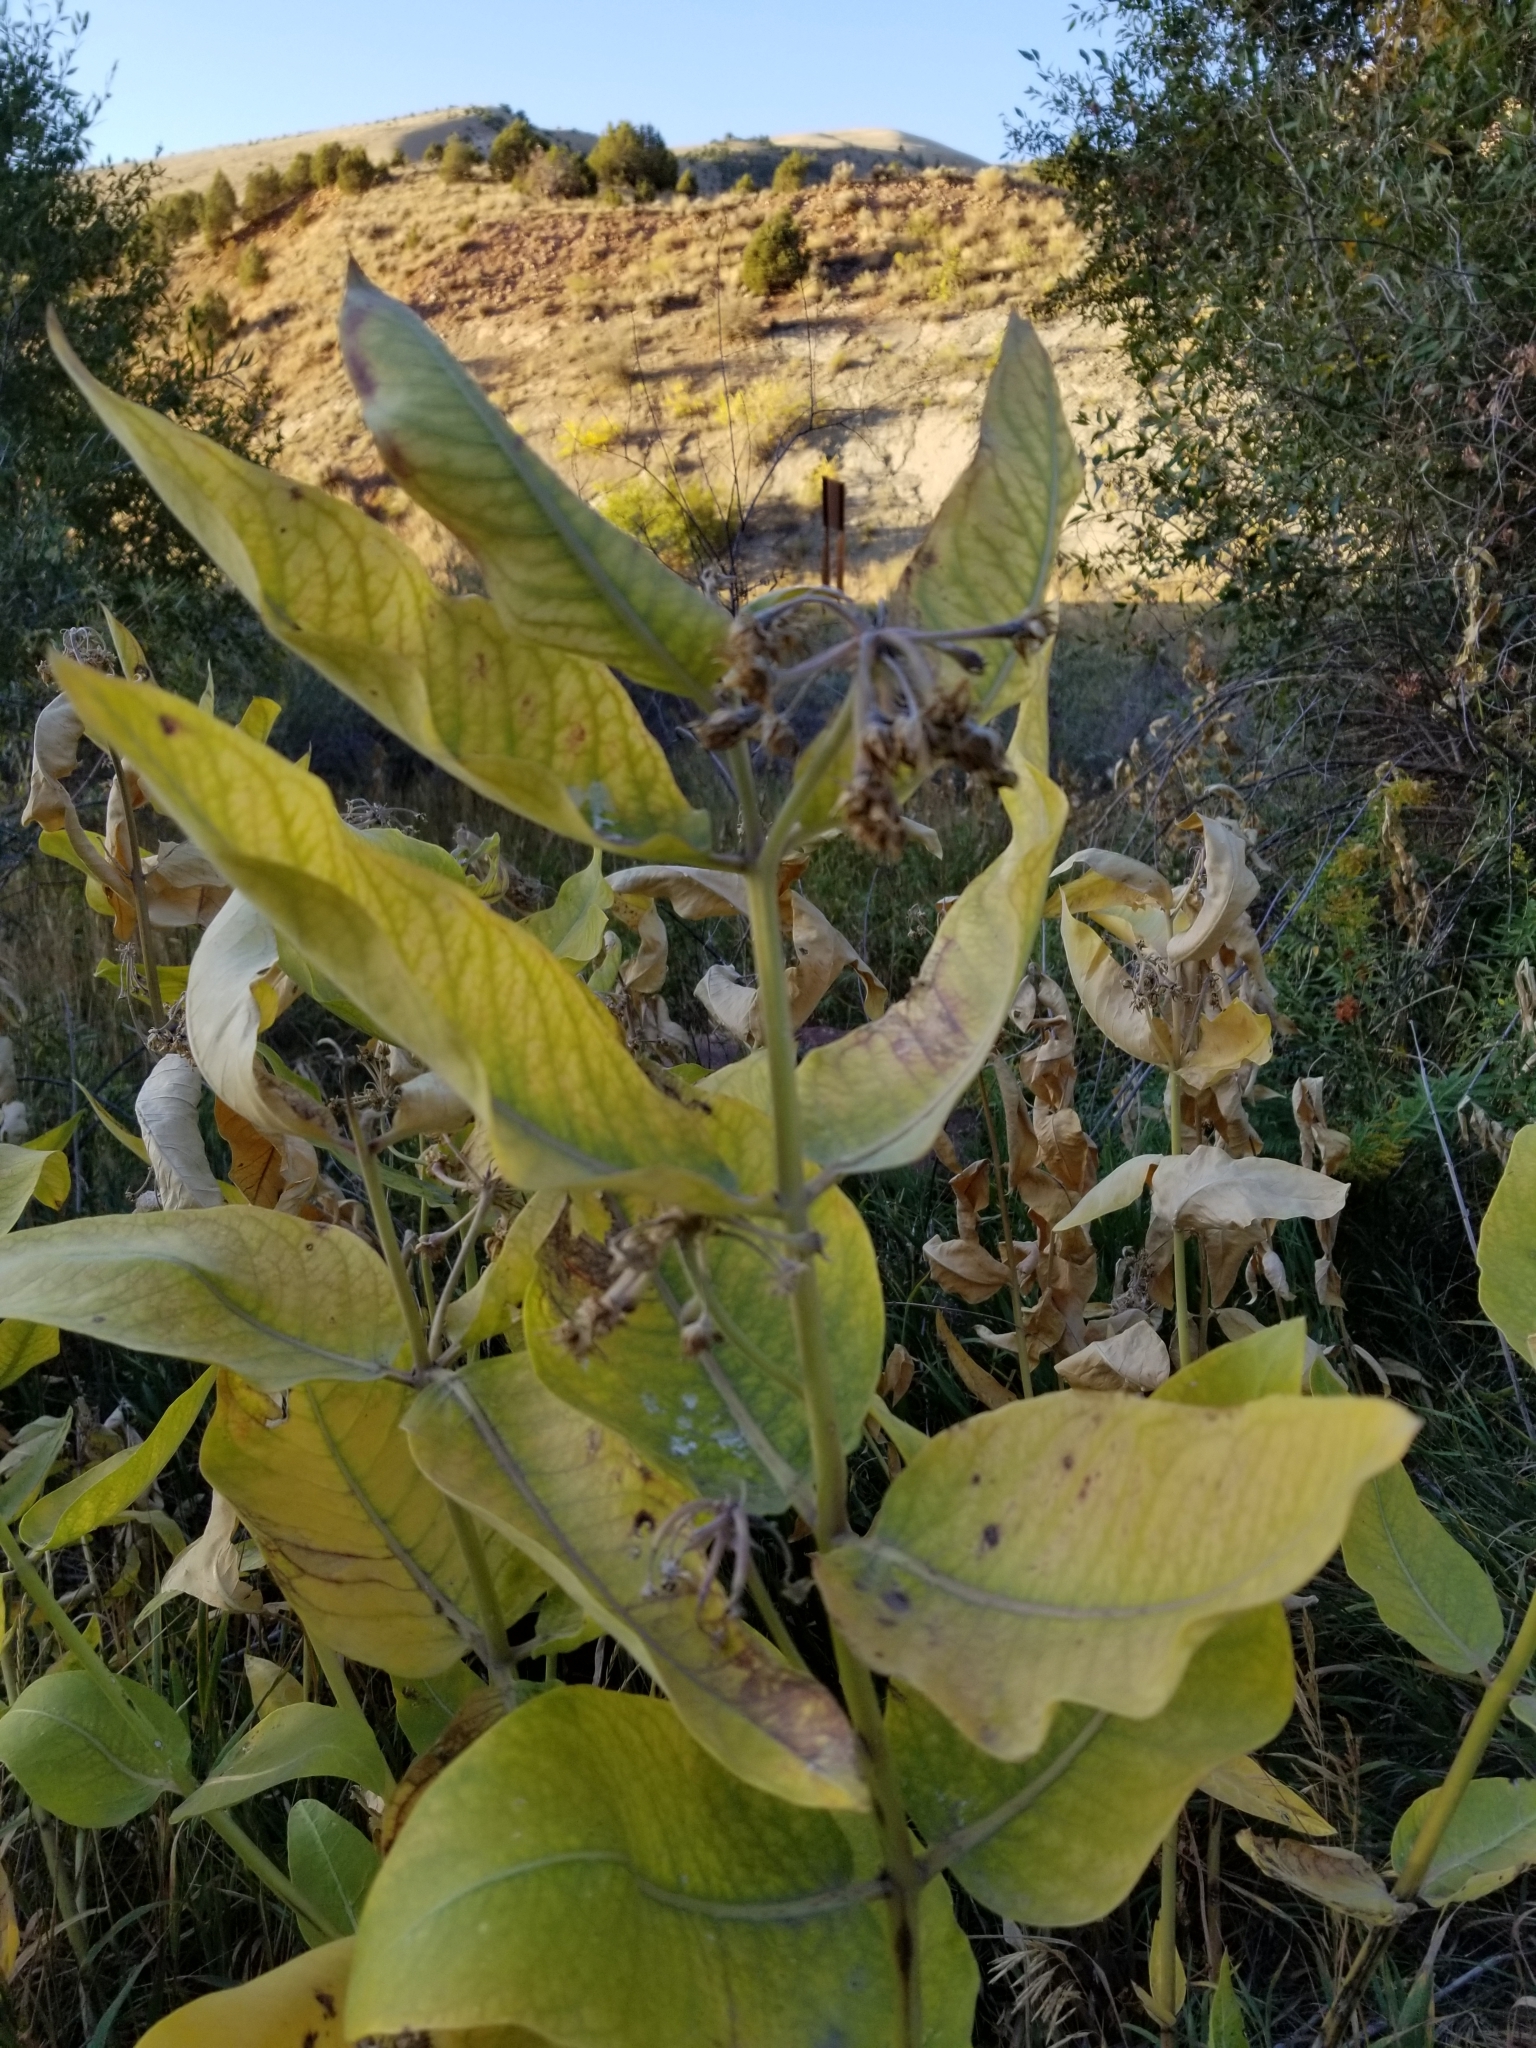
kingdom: Plantae
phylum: Tracheophyta
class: Magnoliopsida
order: Gentianales
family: Apocynaceae
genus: Asclepias
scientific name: Asclepias speciosa
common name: Showy milkweed
